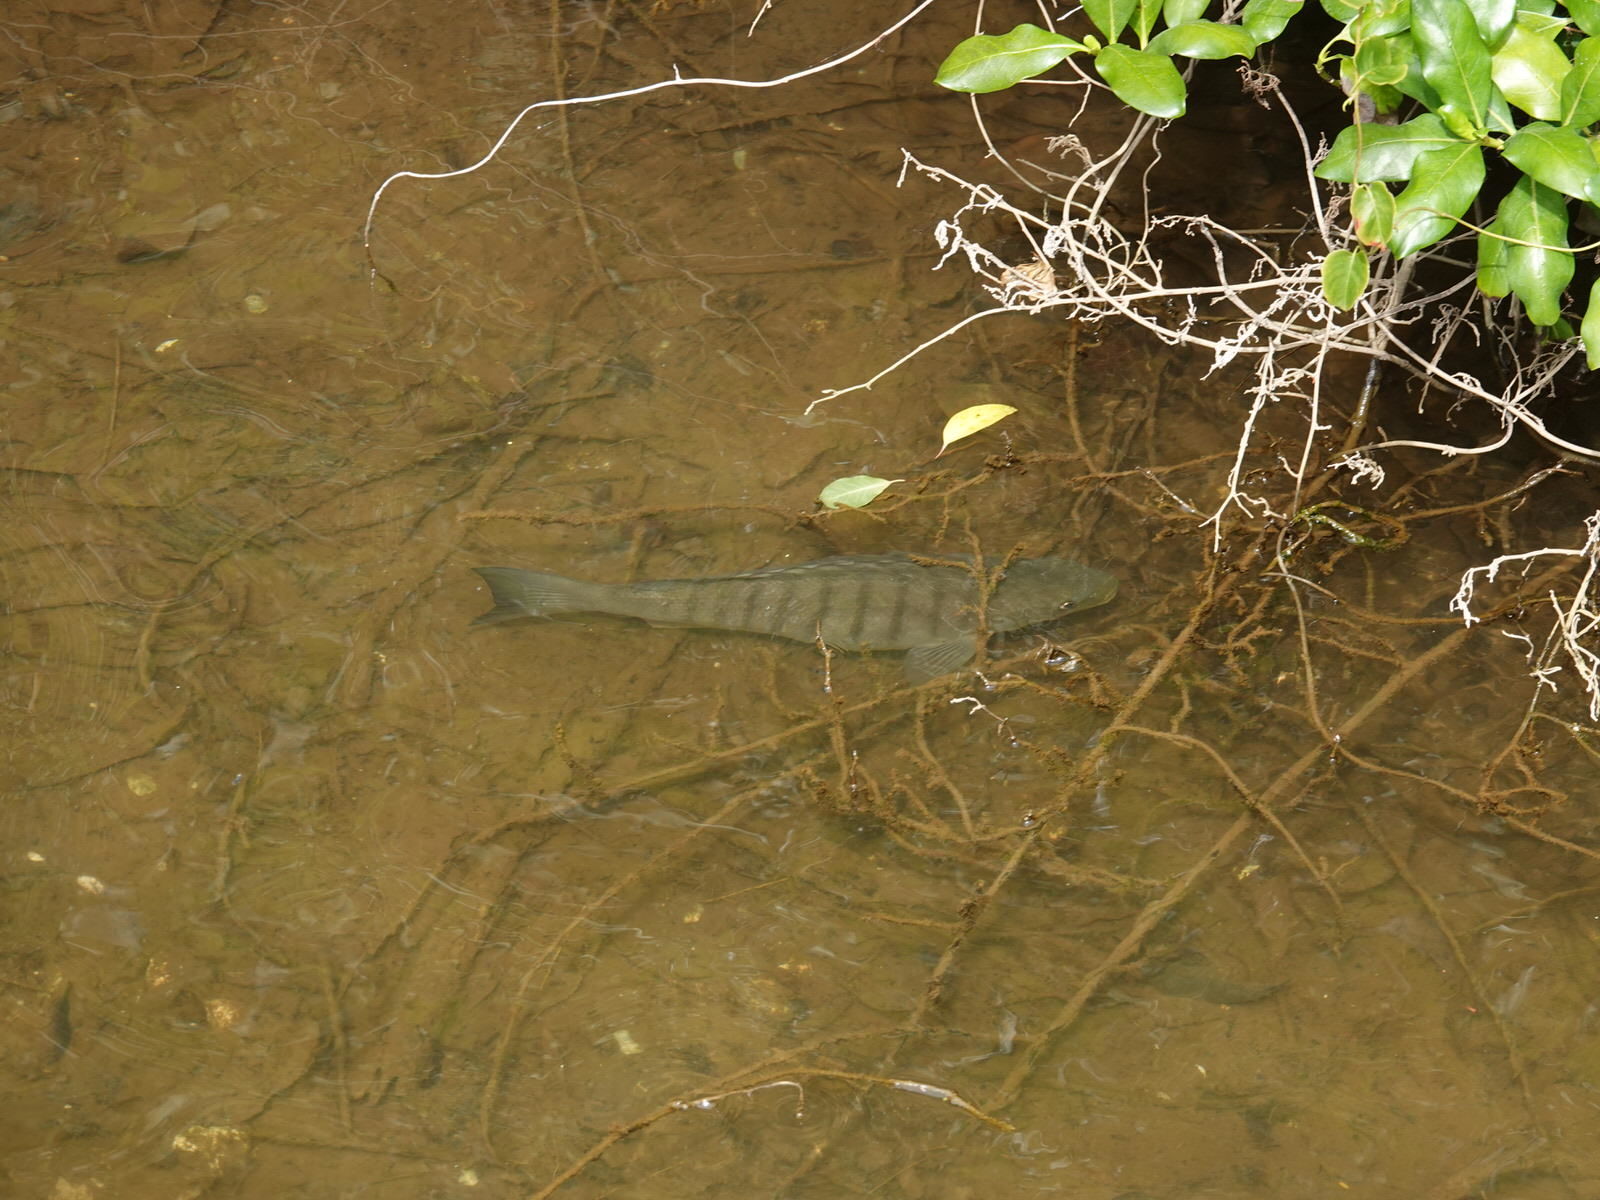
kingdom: Animalia
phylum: Chordata
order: Perciformes
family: Kyphosidae
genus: Girella
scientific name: Girella tricuspidata
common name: Parore
